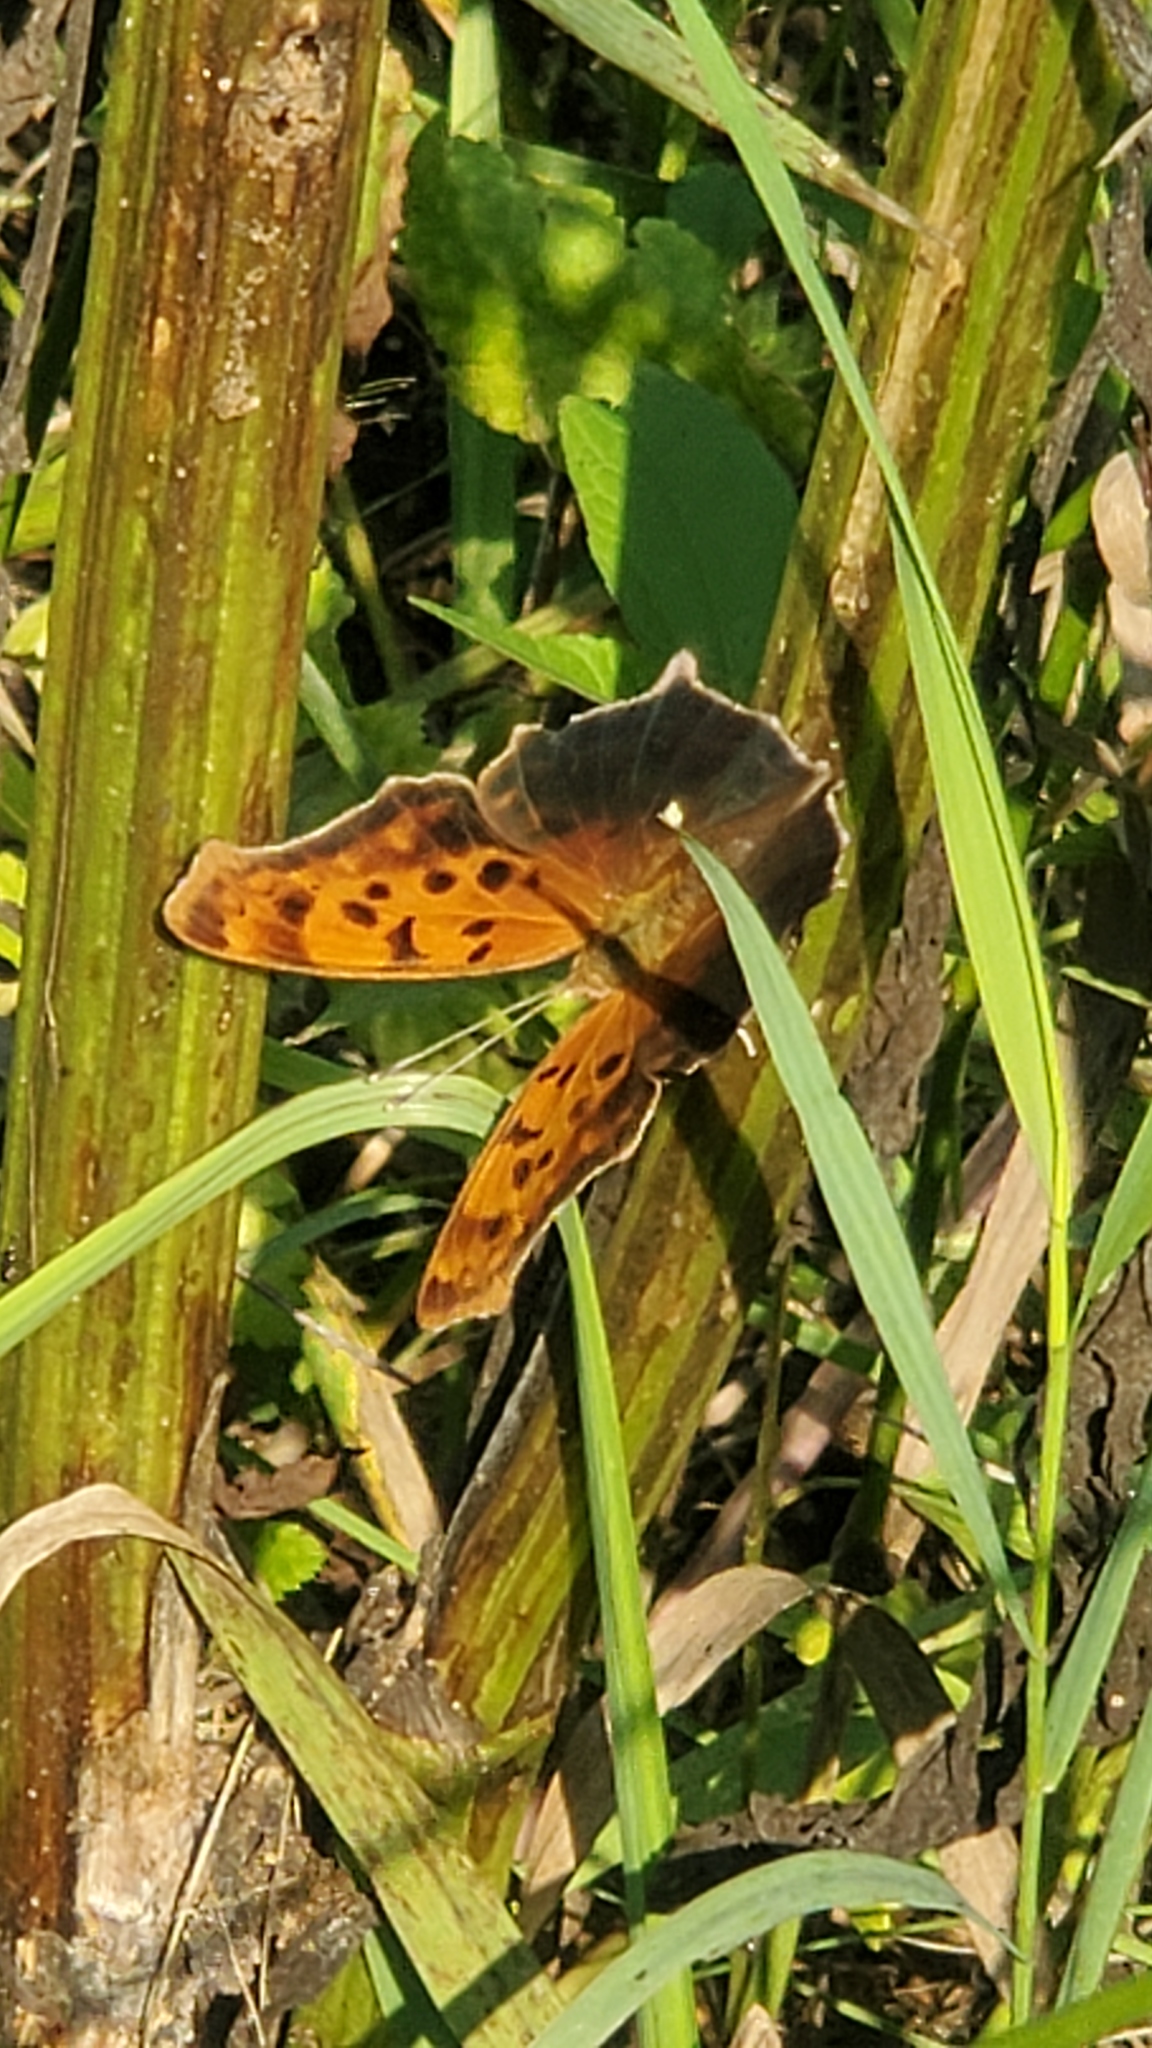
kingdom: Animalia
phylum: Arthropoda
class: Insecta
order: Lepidoptera
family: Nymphalidae
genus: Polygonia
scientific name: Polygonia interrogationis
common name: Question mark
